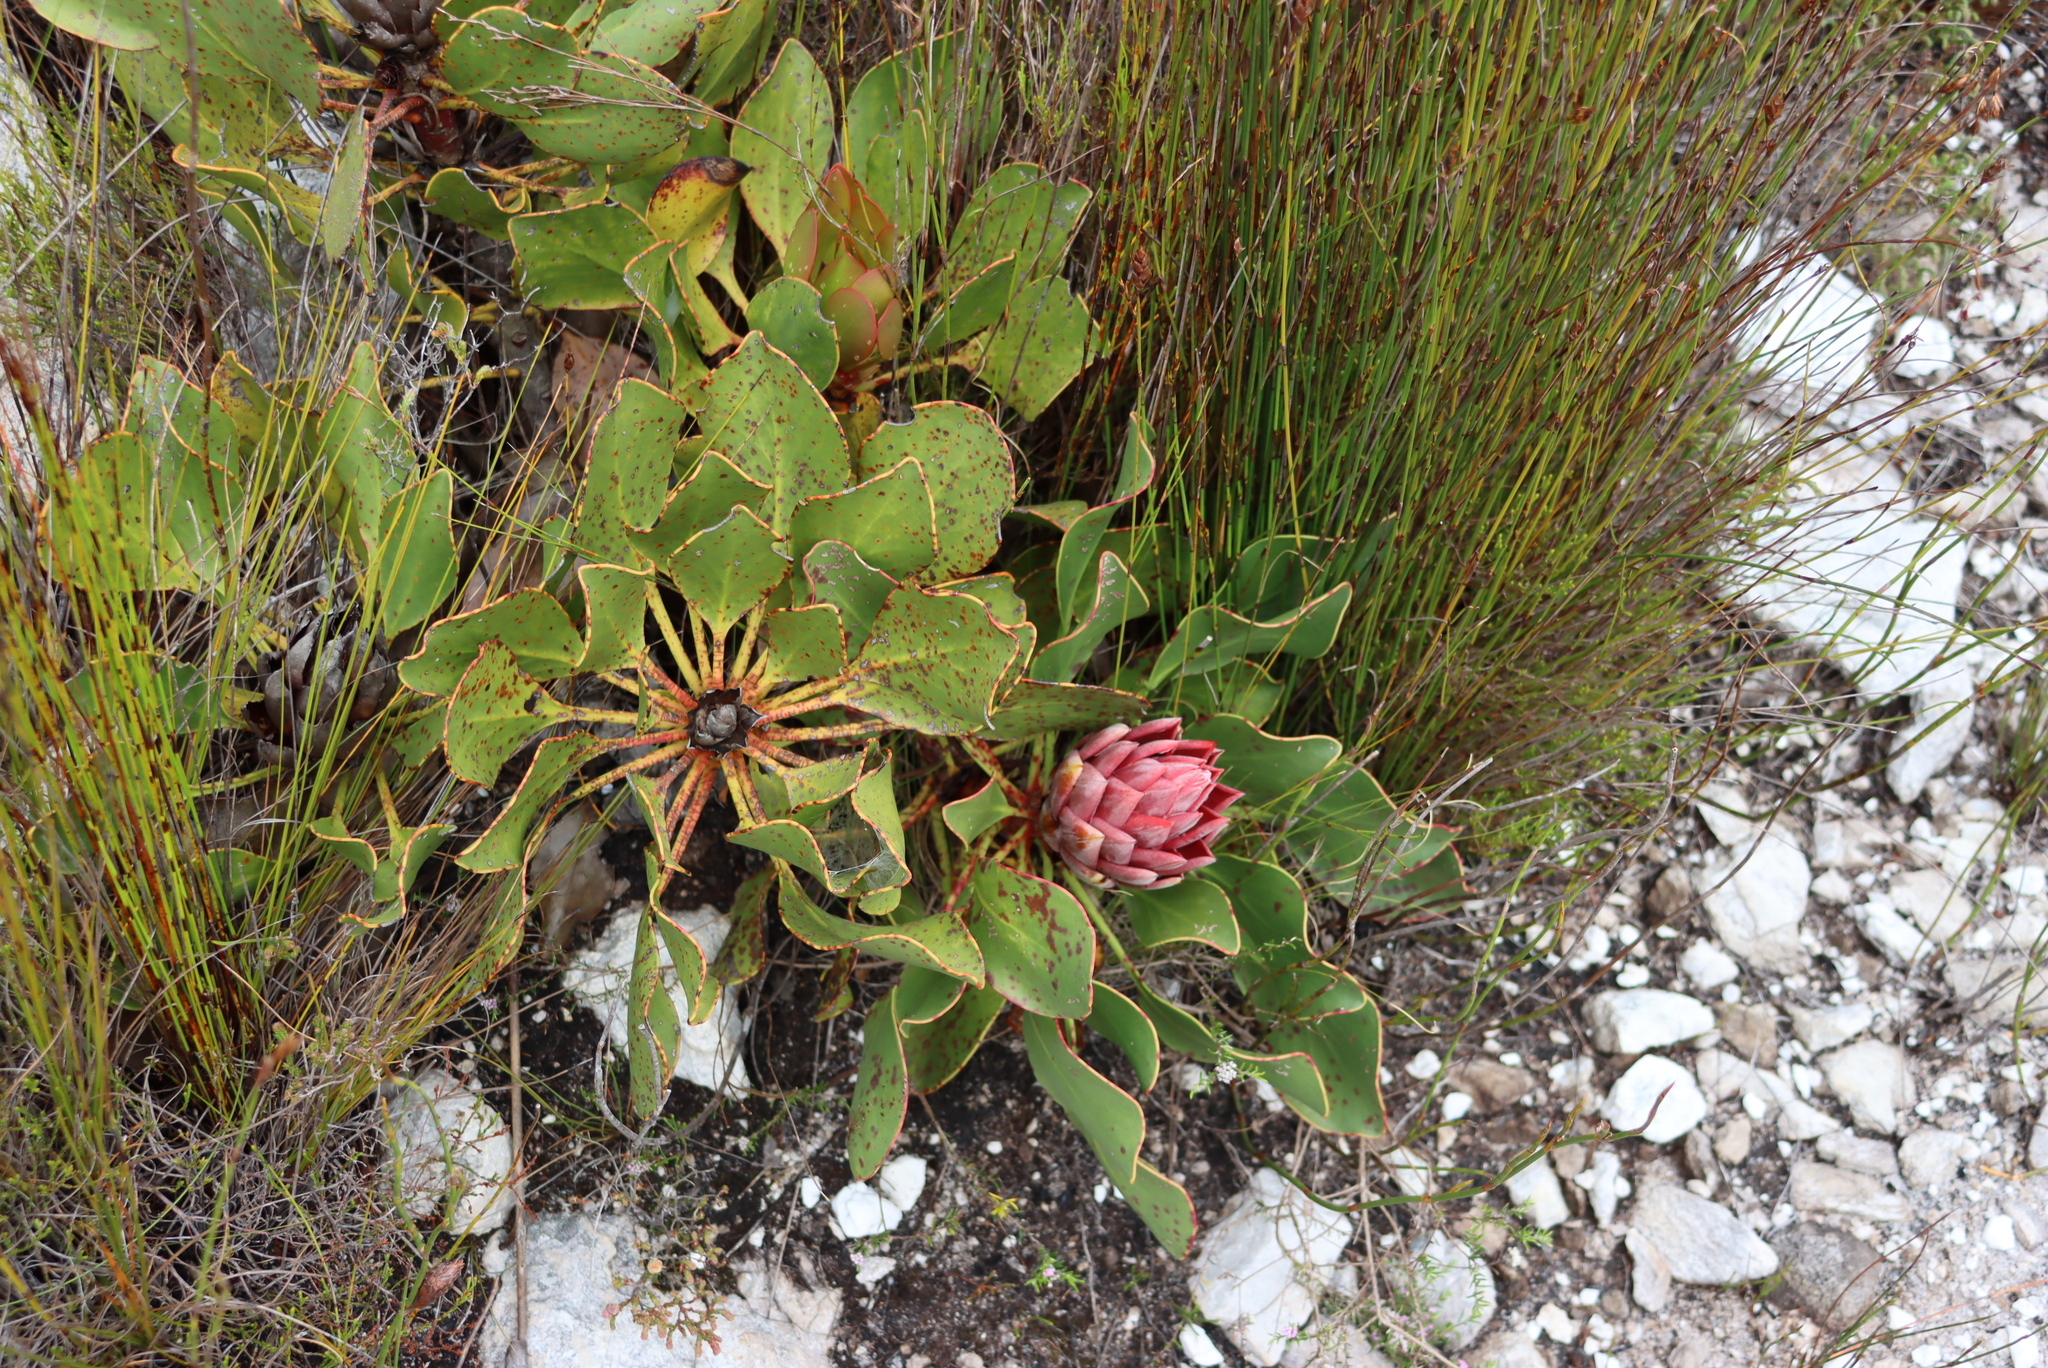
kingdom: Plantae
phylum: Tracheophyta
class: Magnoliopsida
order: Proteales
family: Proteaceae
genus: Protea
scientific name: Protea cynaroides
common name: King protea
